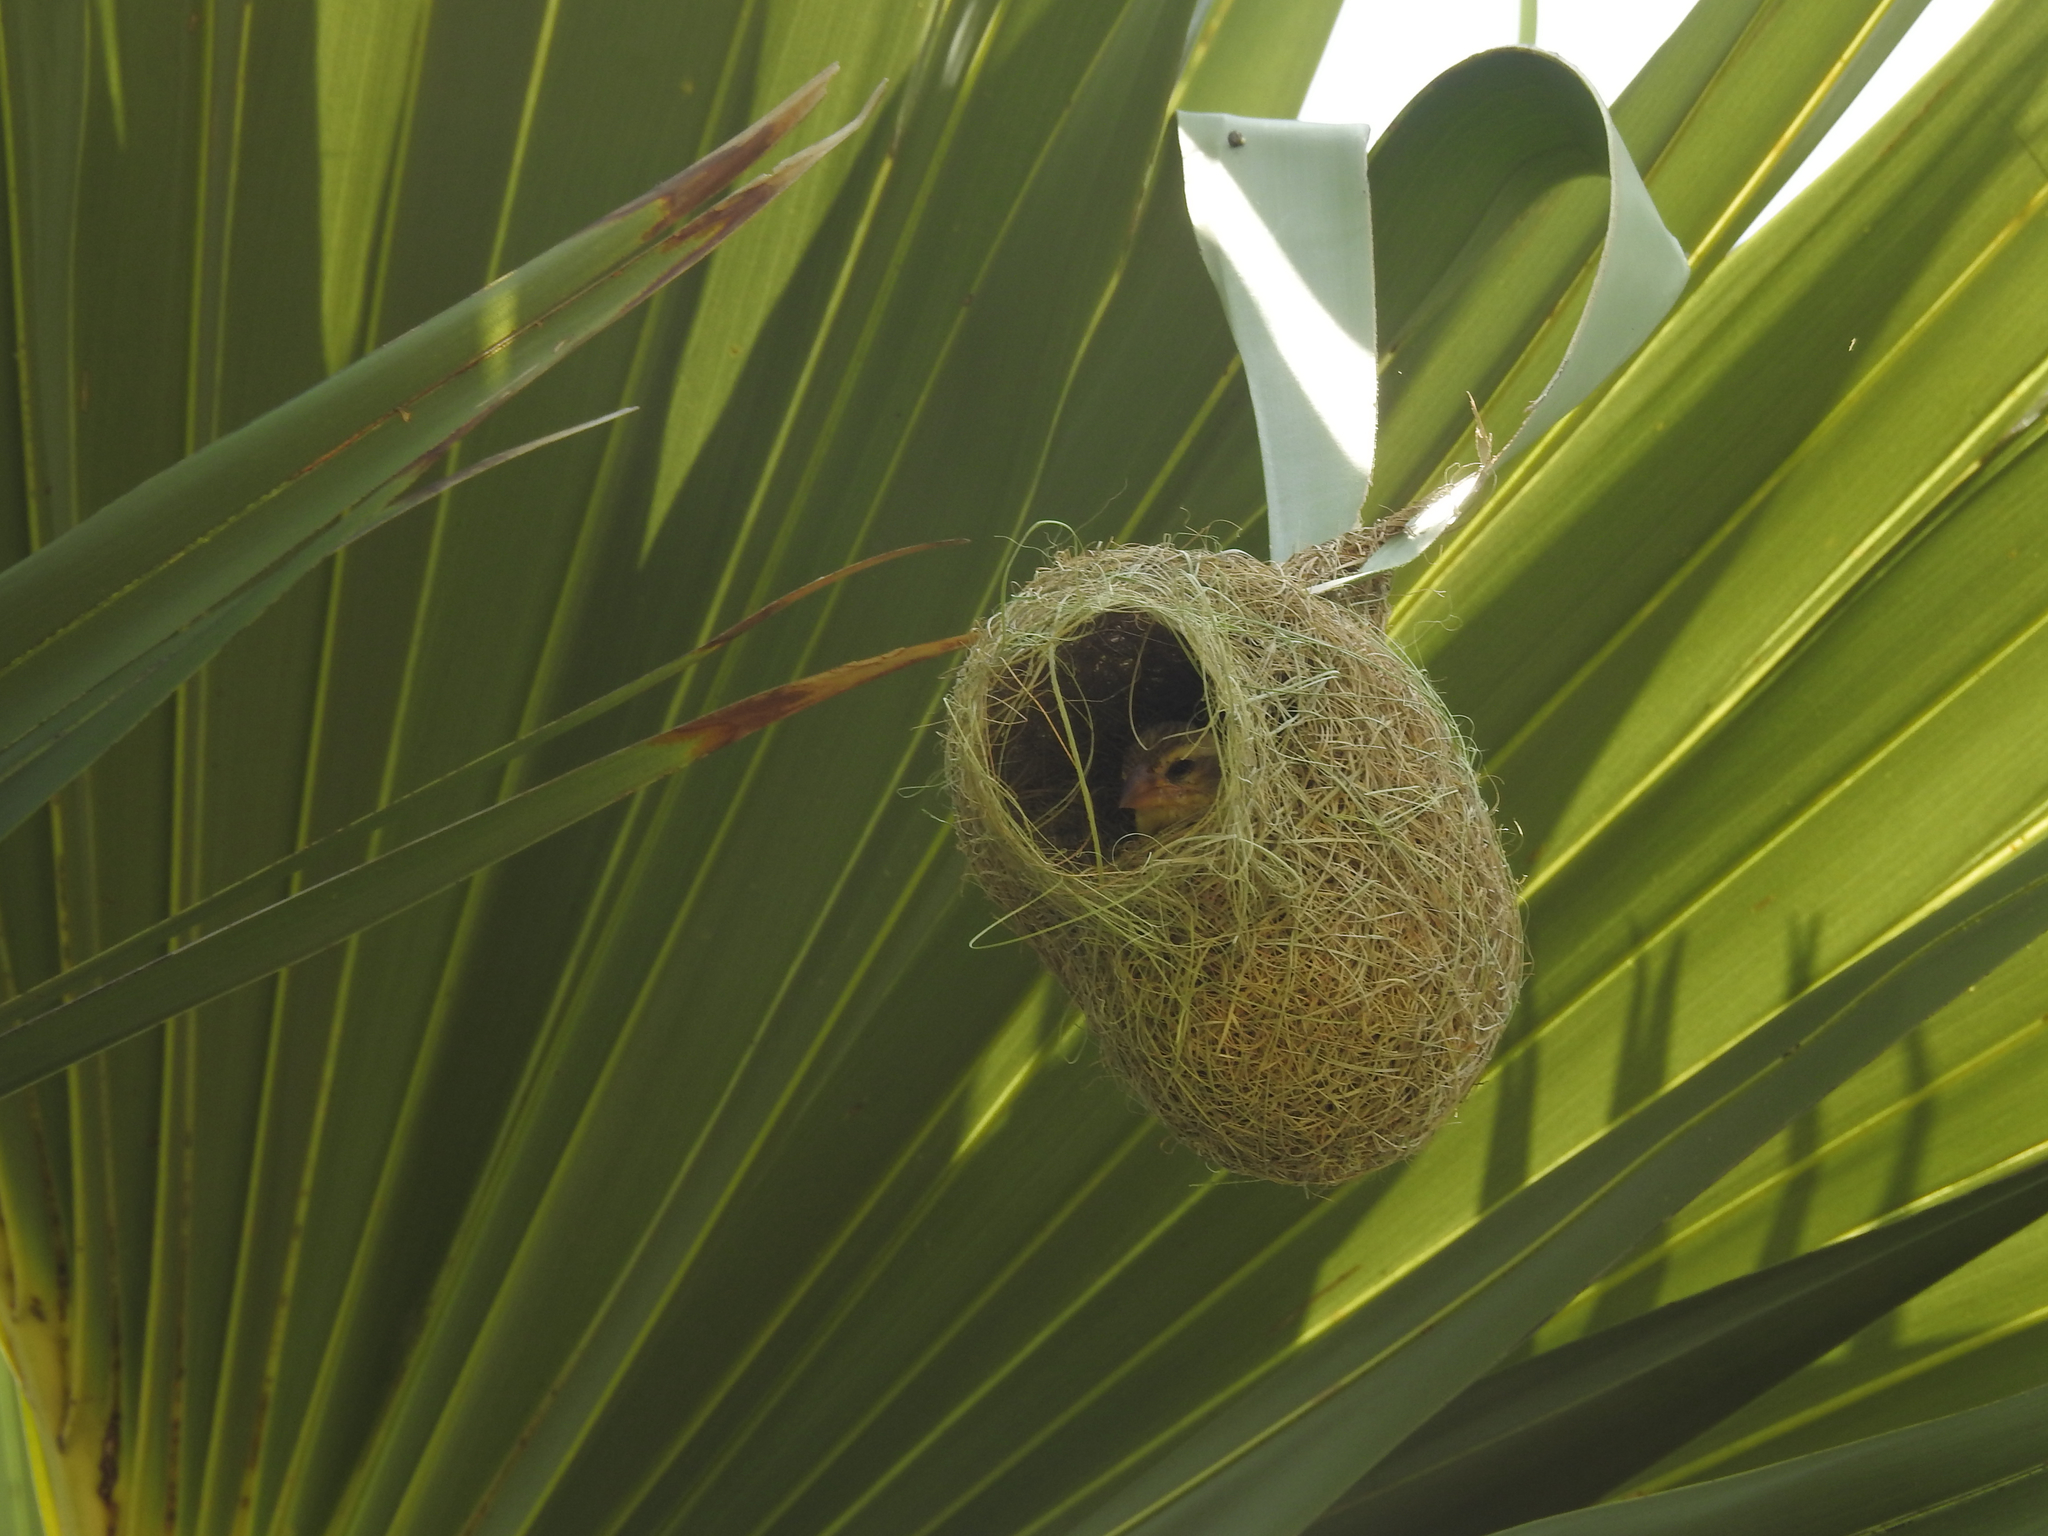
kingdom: Animalia
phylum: Chordata
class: Aves
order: Passeriformes
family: Ploceidae
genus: Ploceus
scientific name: Ploceus philippinus
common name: Baya weaver
